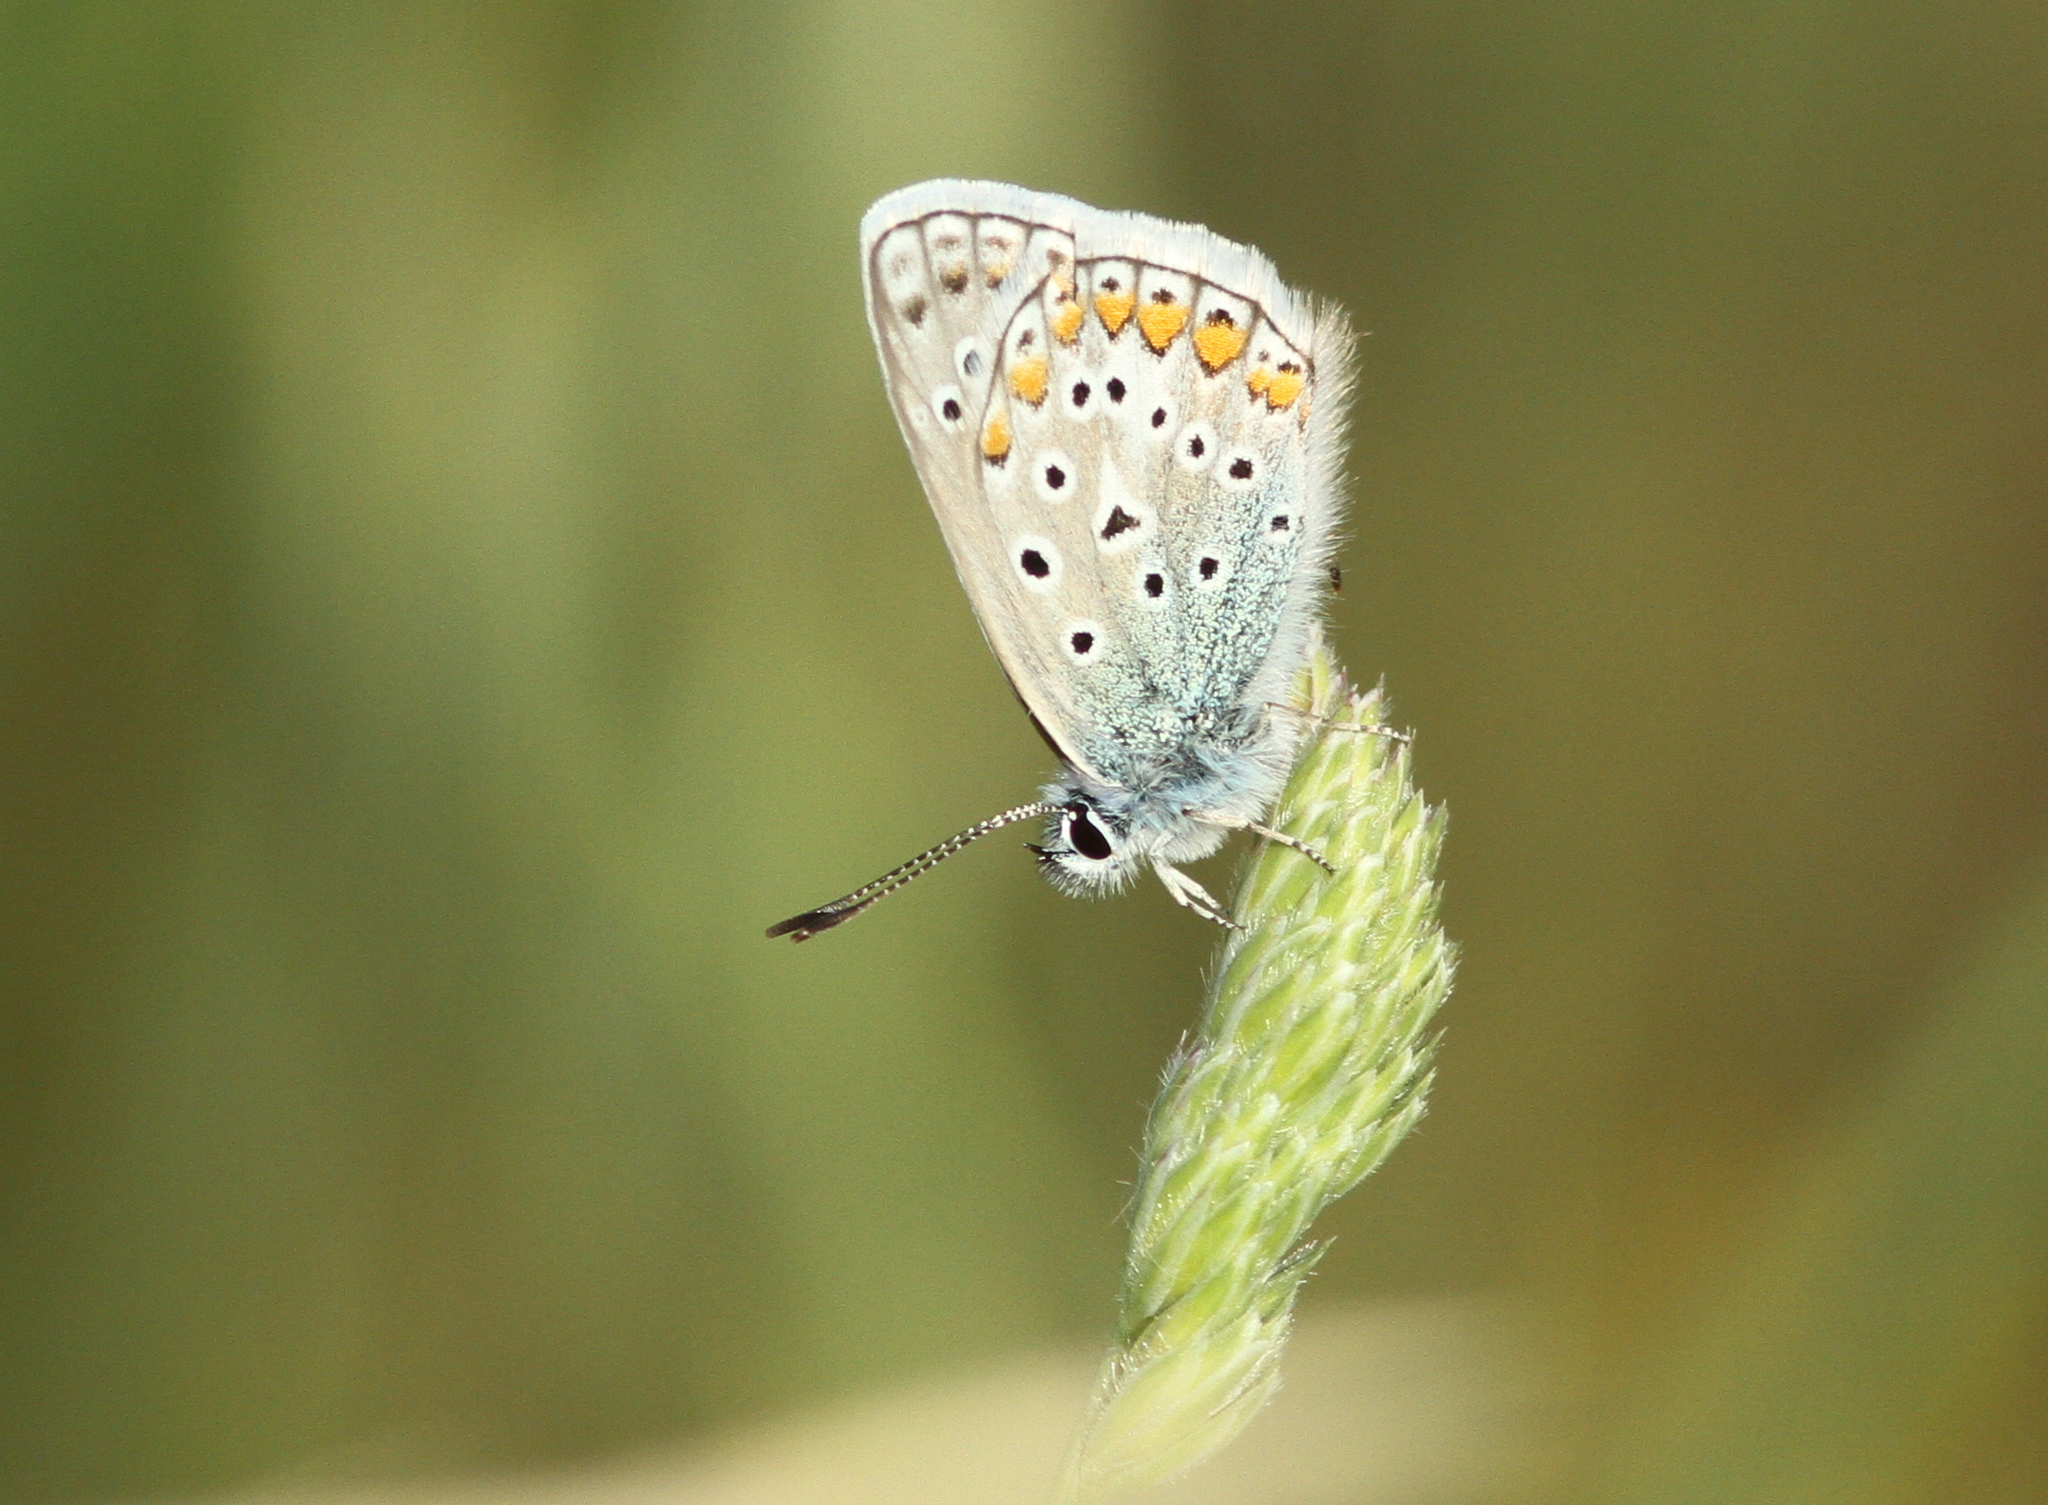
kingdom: Animalia
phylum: Arthropoda
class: Insecta
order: Lepidoptera
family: Lycaenidae
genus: Polyommatus
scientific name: Polyommatus icarus
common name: Common blue
